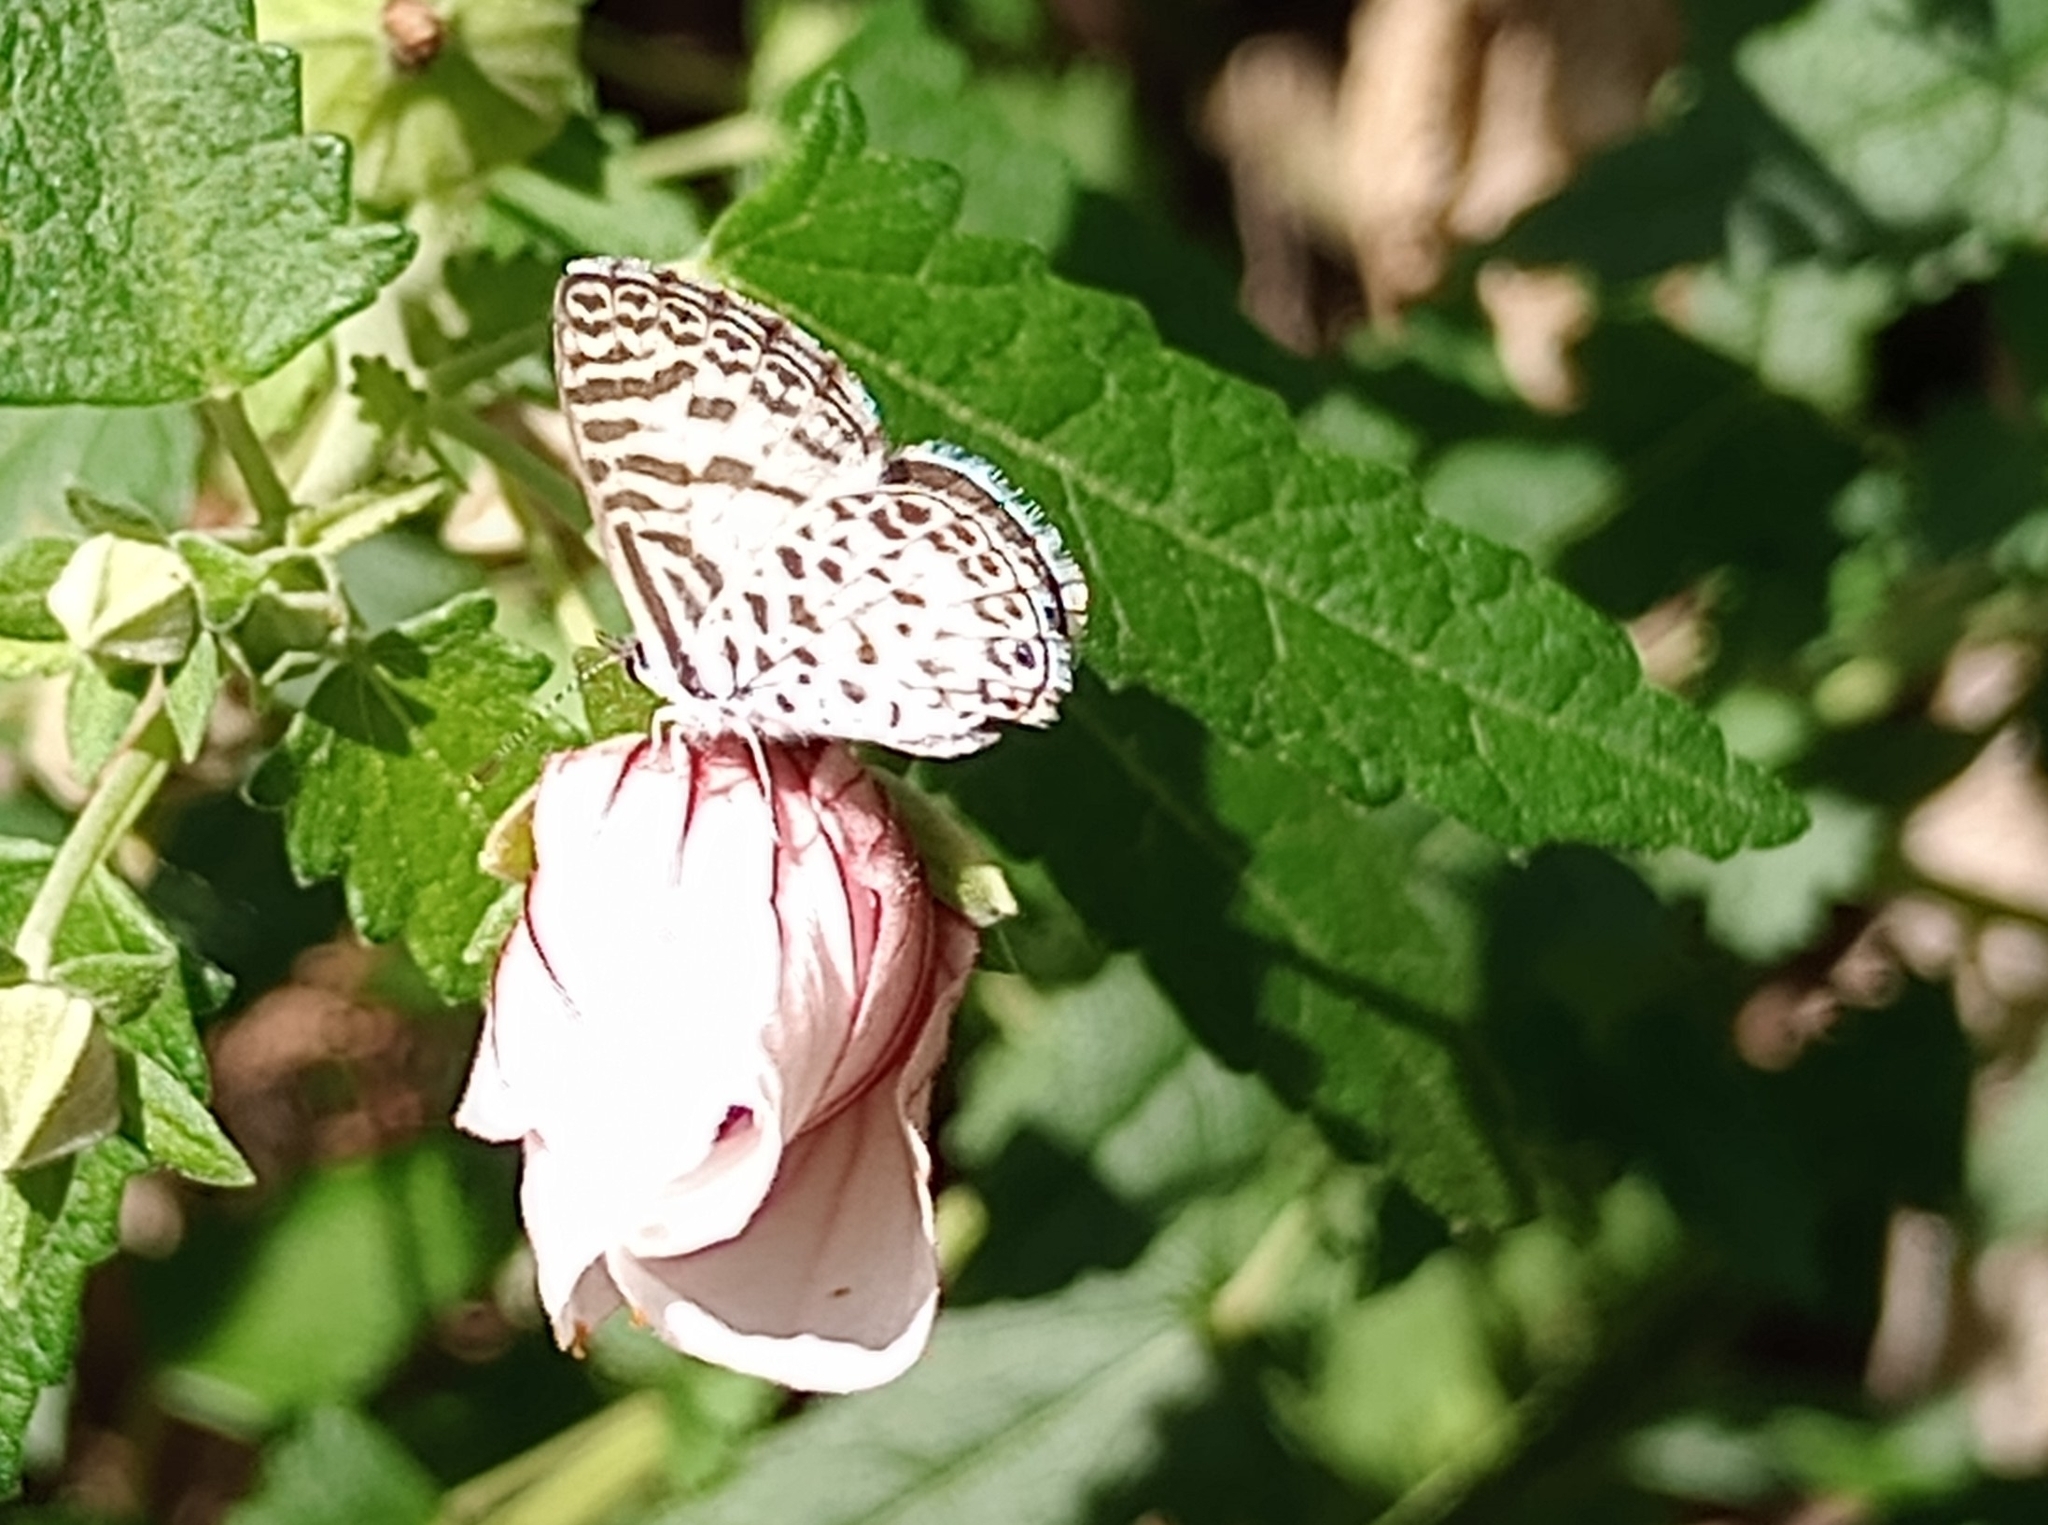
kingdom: Animalia
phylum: Arthropoda
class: Insecta
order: Lepidoptera
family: Lycaenidae
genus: Leptotes
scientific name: Leptotes cassius
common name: Cassius blue
